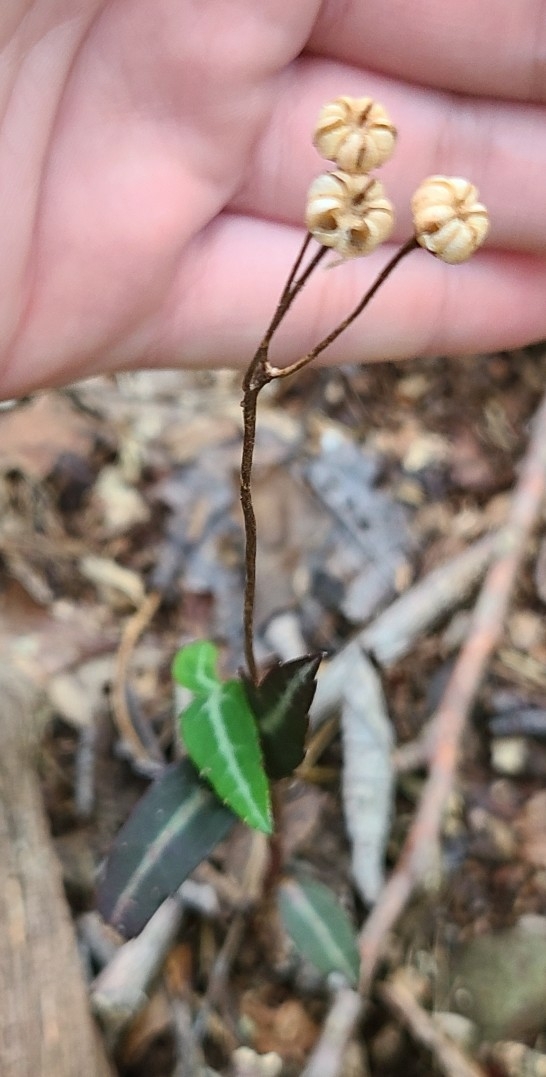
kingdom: Plantae
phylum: Tracheophyta
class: Magnoliopsida
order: Ericales
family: Ericaceae
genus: Chimaphila
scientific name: Chimaphila maculata
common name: Spotted pipsissewa
